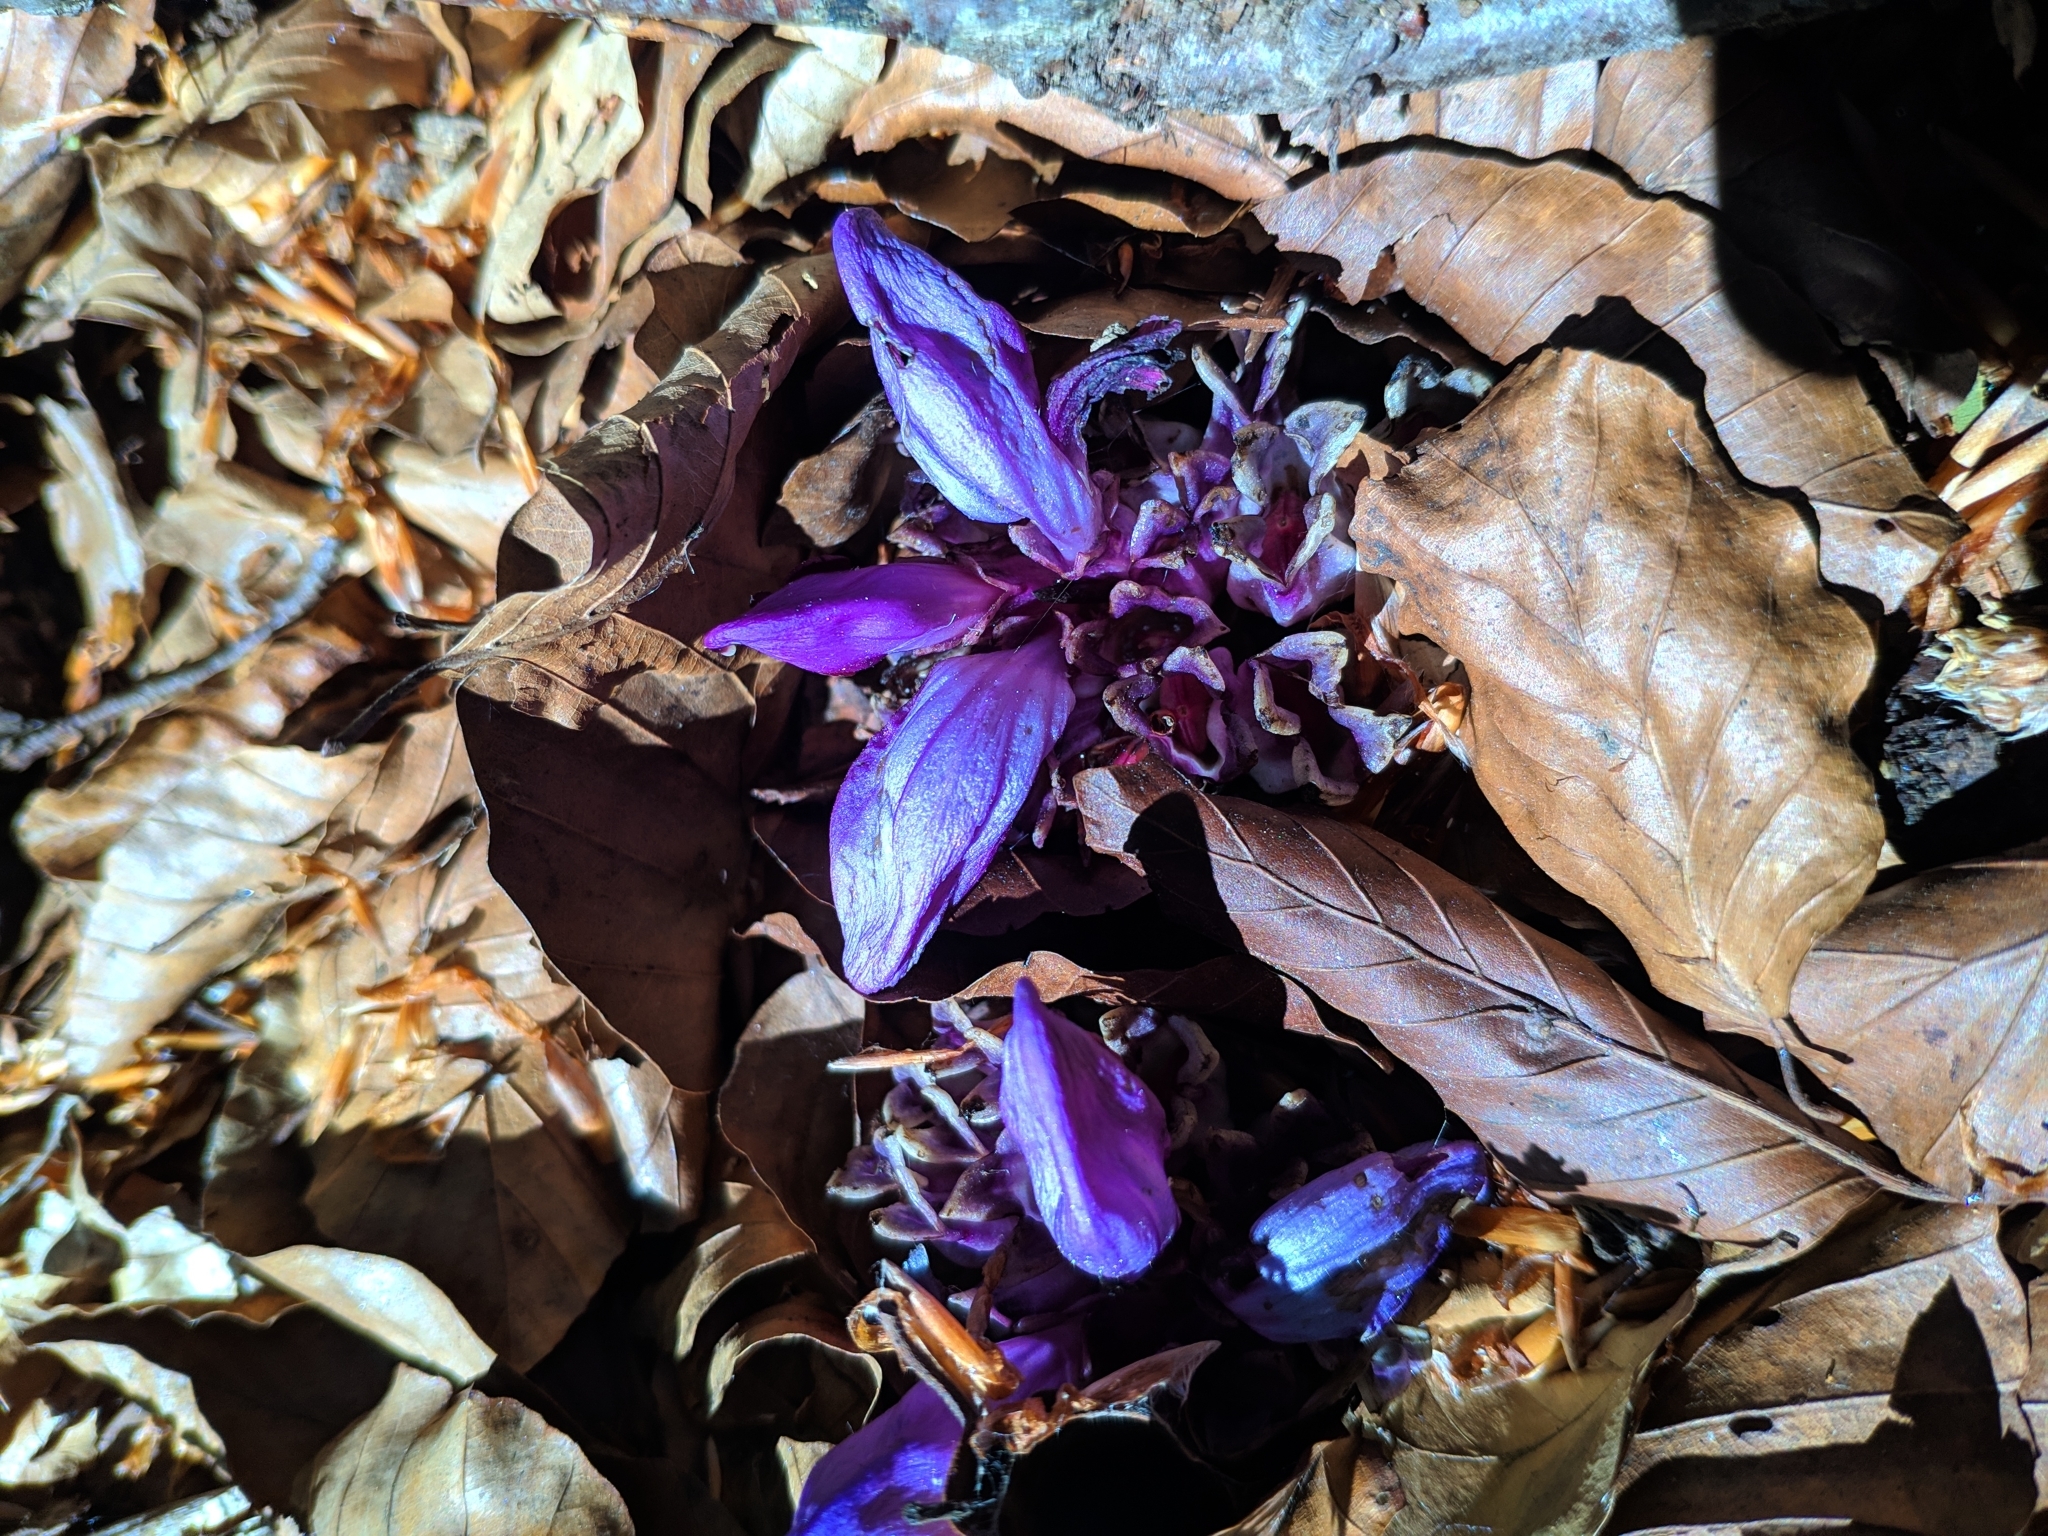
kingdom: Plantae
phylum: Tracheophyta
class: Magnoliopsida
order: Lamiales
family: Orobanchaceae
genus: Lathraea
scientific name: Lathraea clandestina
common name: Purple toothwort
